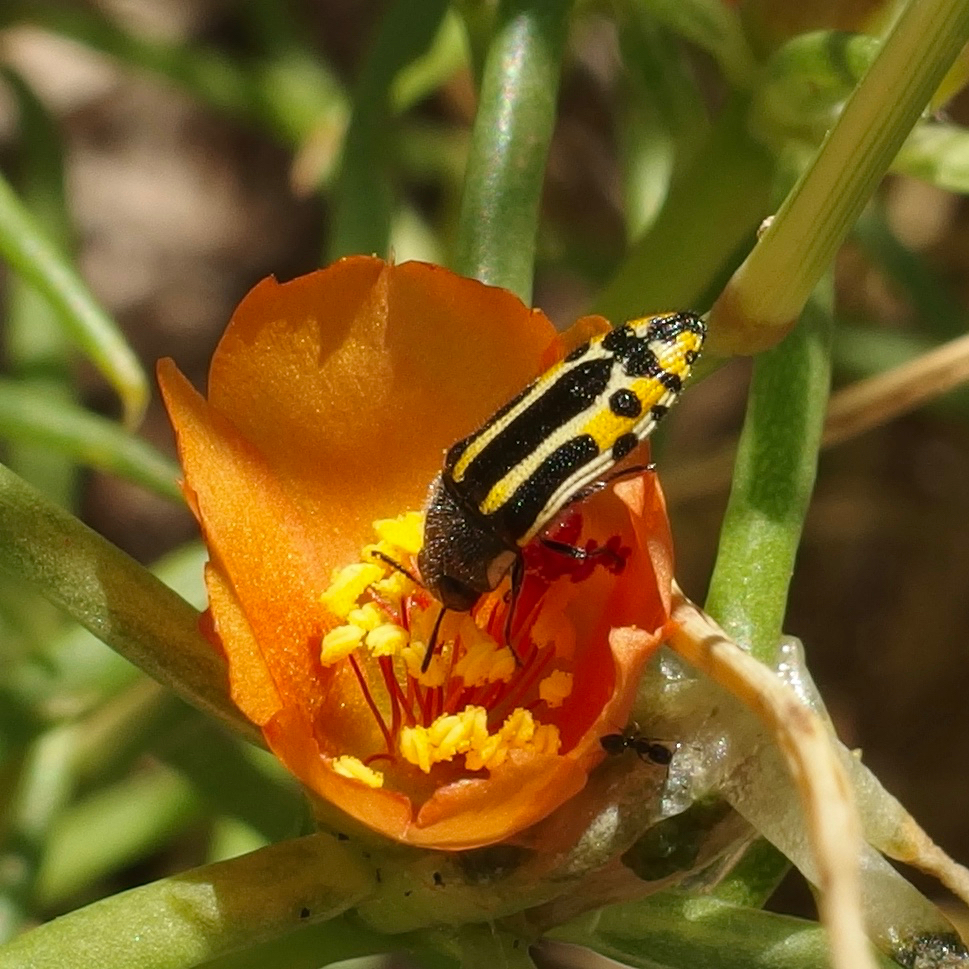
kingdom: Animalia
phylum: Arthropoda
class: Insecta
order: Coleoptera
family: Buprestidae
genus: Acmaeodera
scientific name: Acmaeodera scalaris
